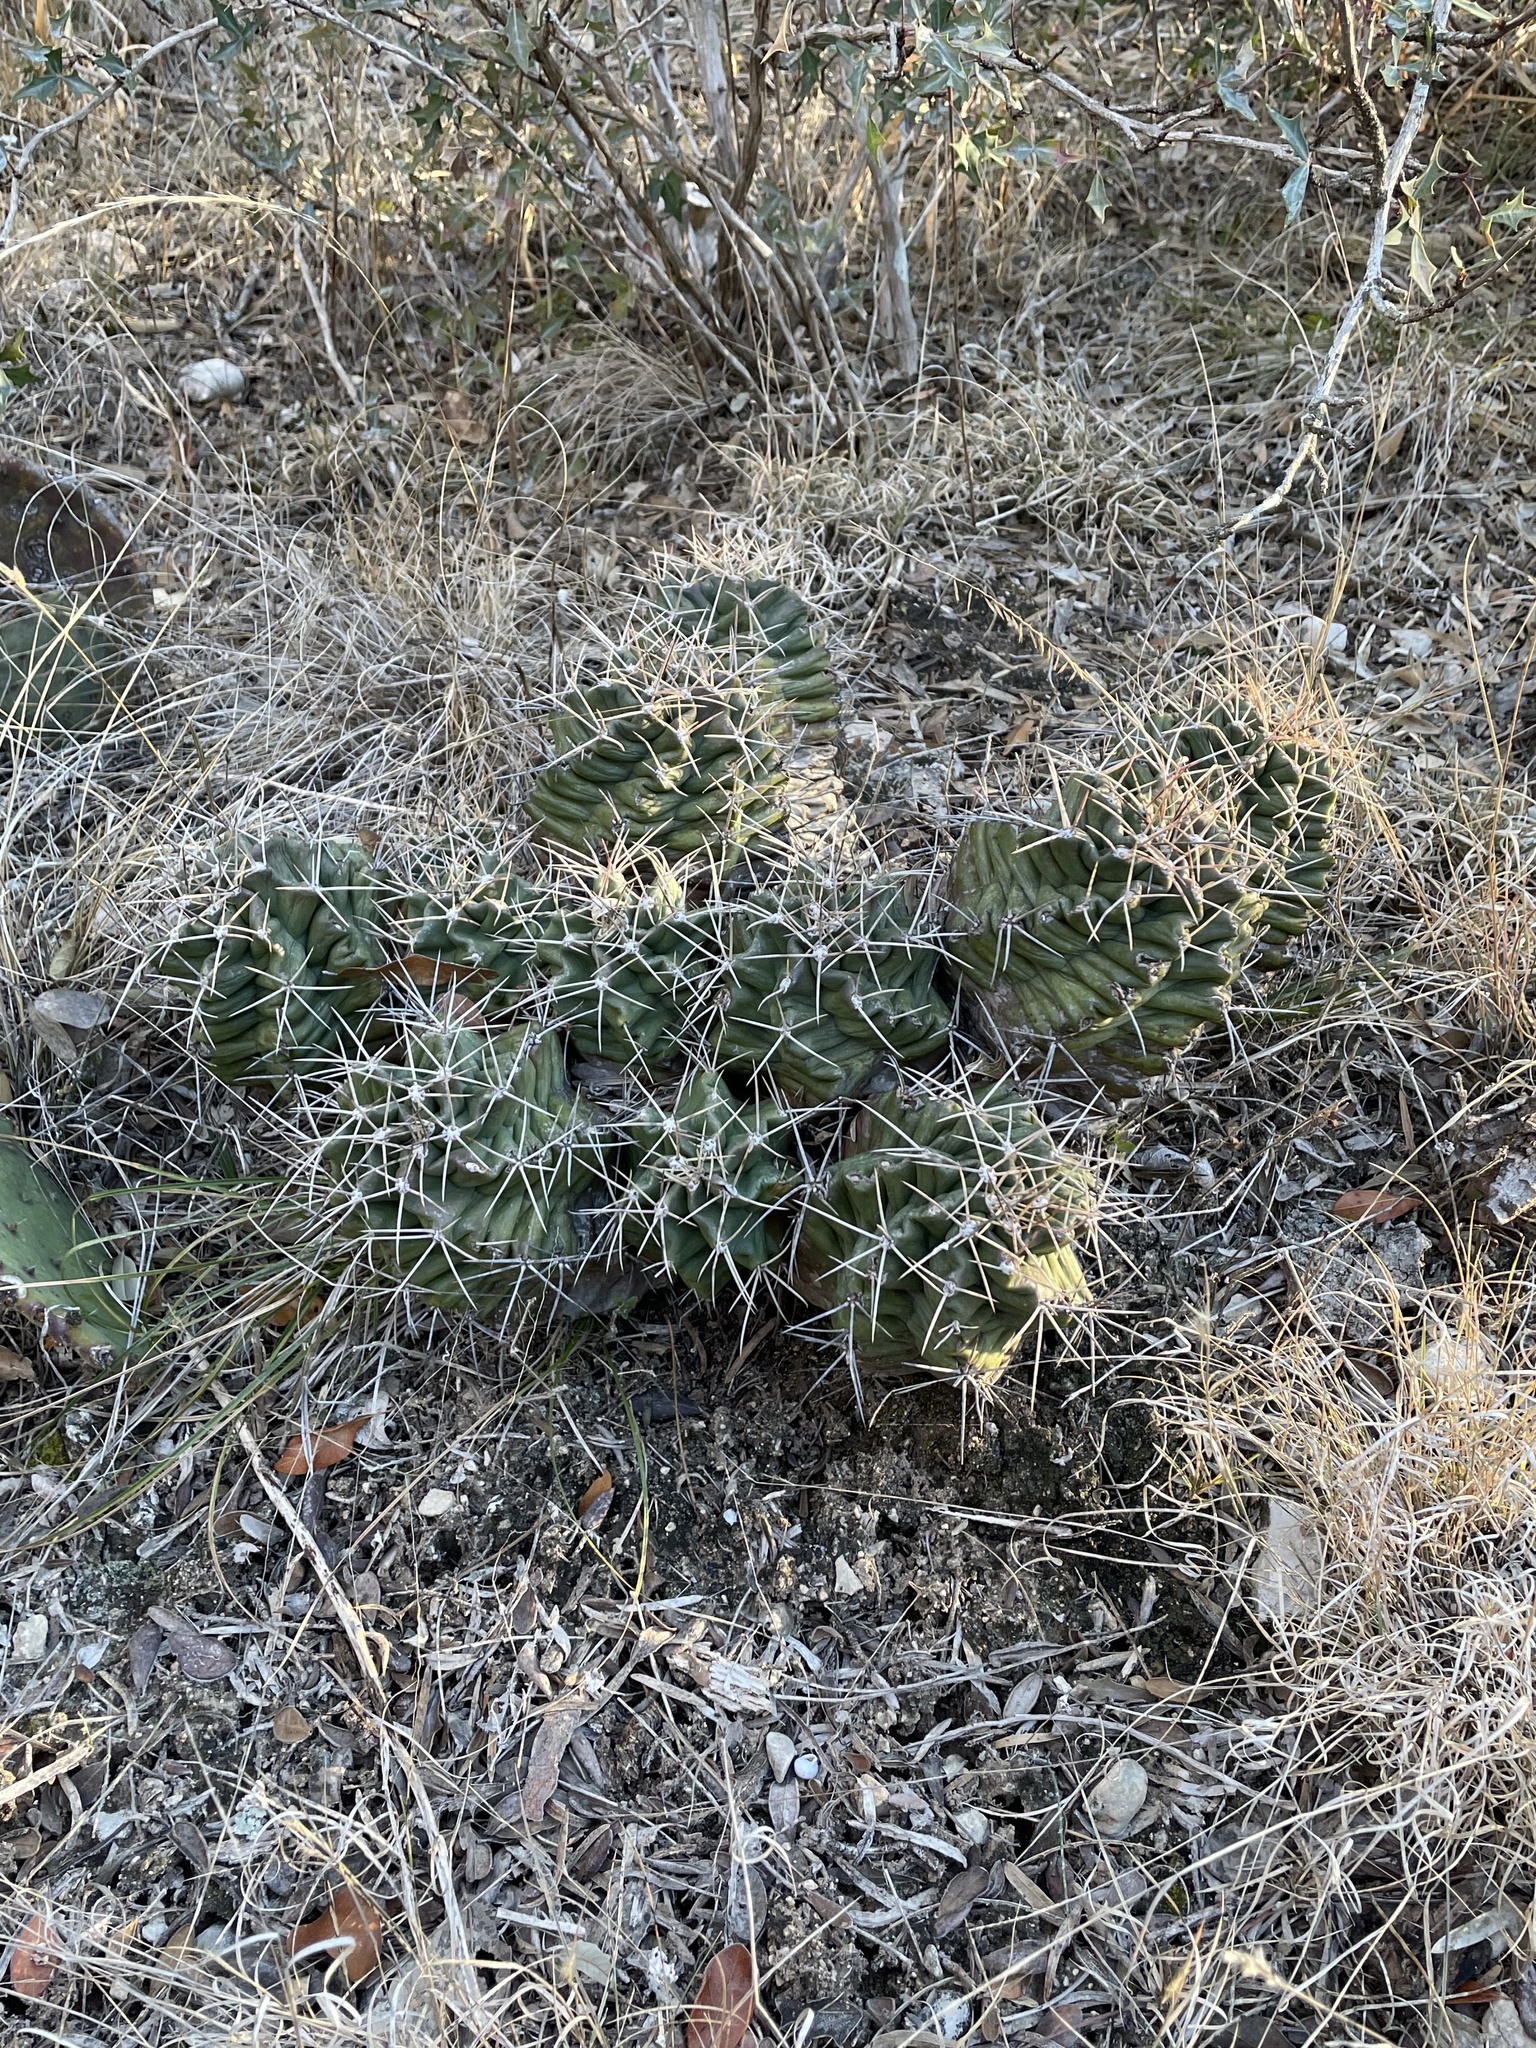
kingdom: Plantae
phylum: Tracheophyta
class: Magnoliopsida
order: Caryophyllales
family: Cactaceae
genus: Echinocereus
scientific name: Echinocereus coccineus
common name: Scarlet hedgehog cactus
